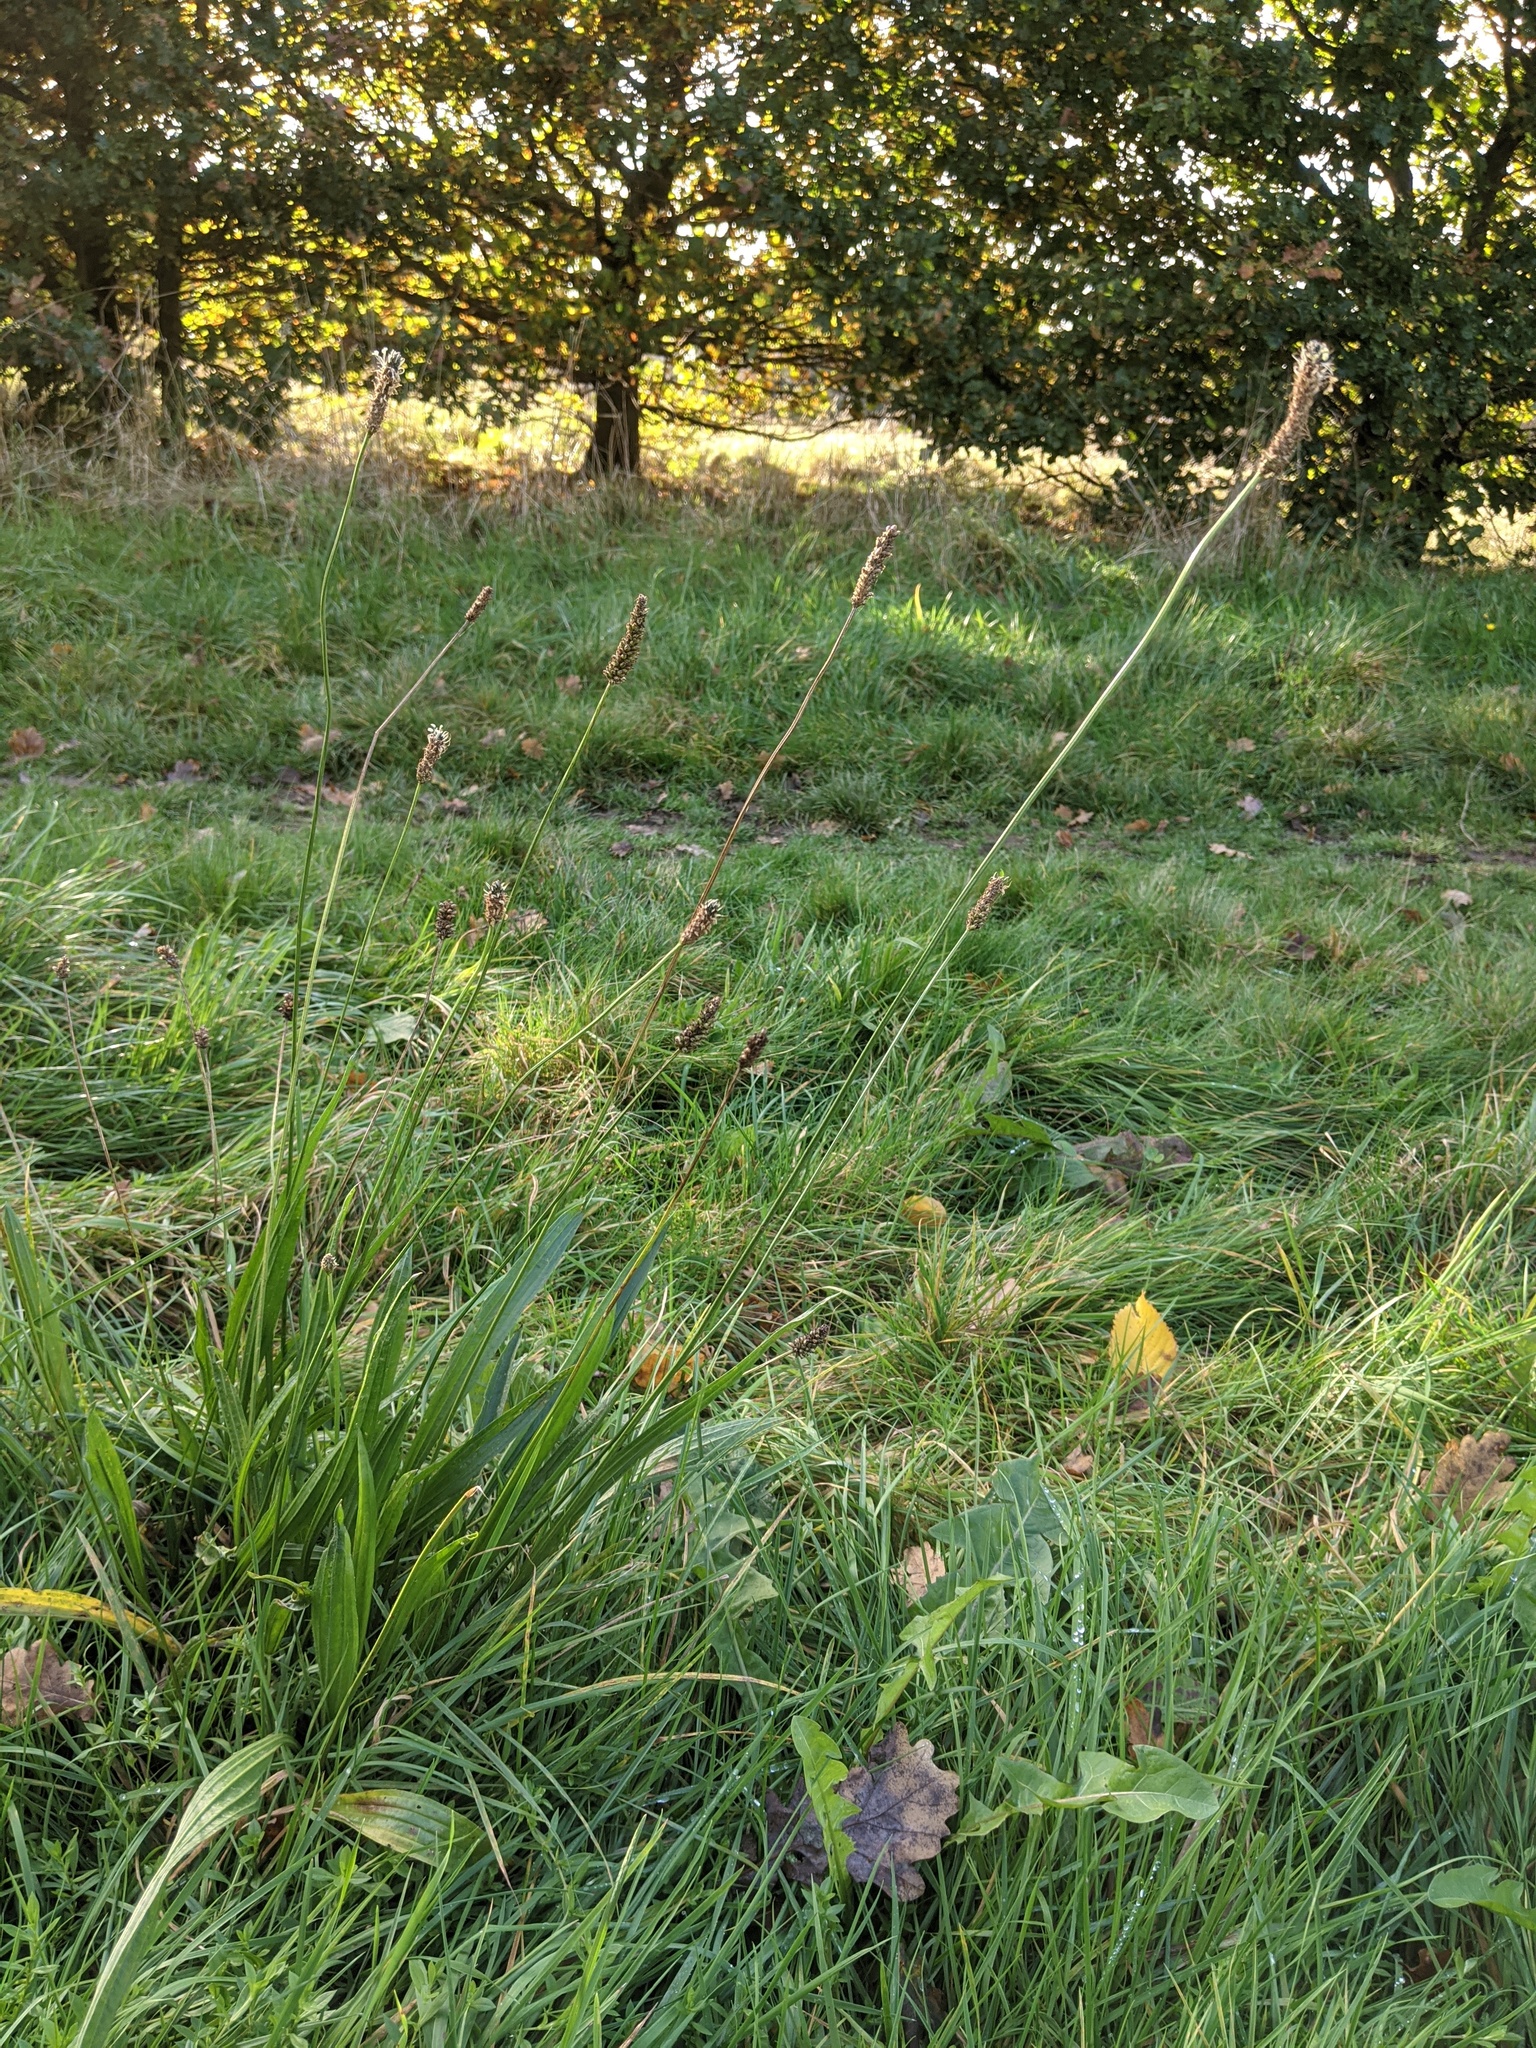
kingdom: Plantae
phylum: Tracheophyta
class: Magnoliopsida
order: Lamiales
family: Plantaginaceae
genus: Plantago
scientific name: Plantago lanceolata
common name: Ribwort plantain
